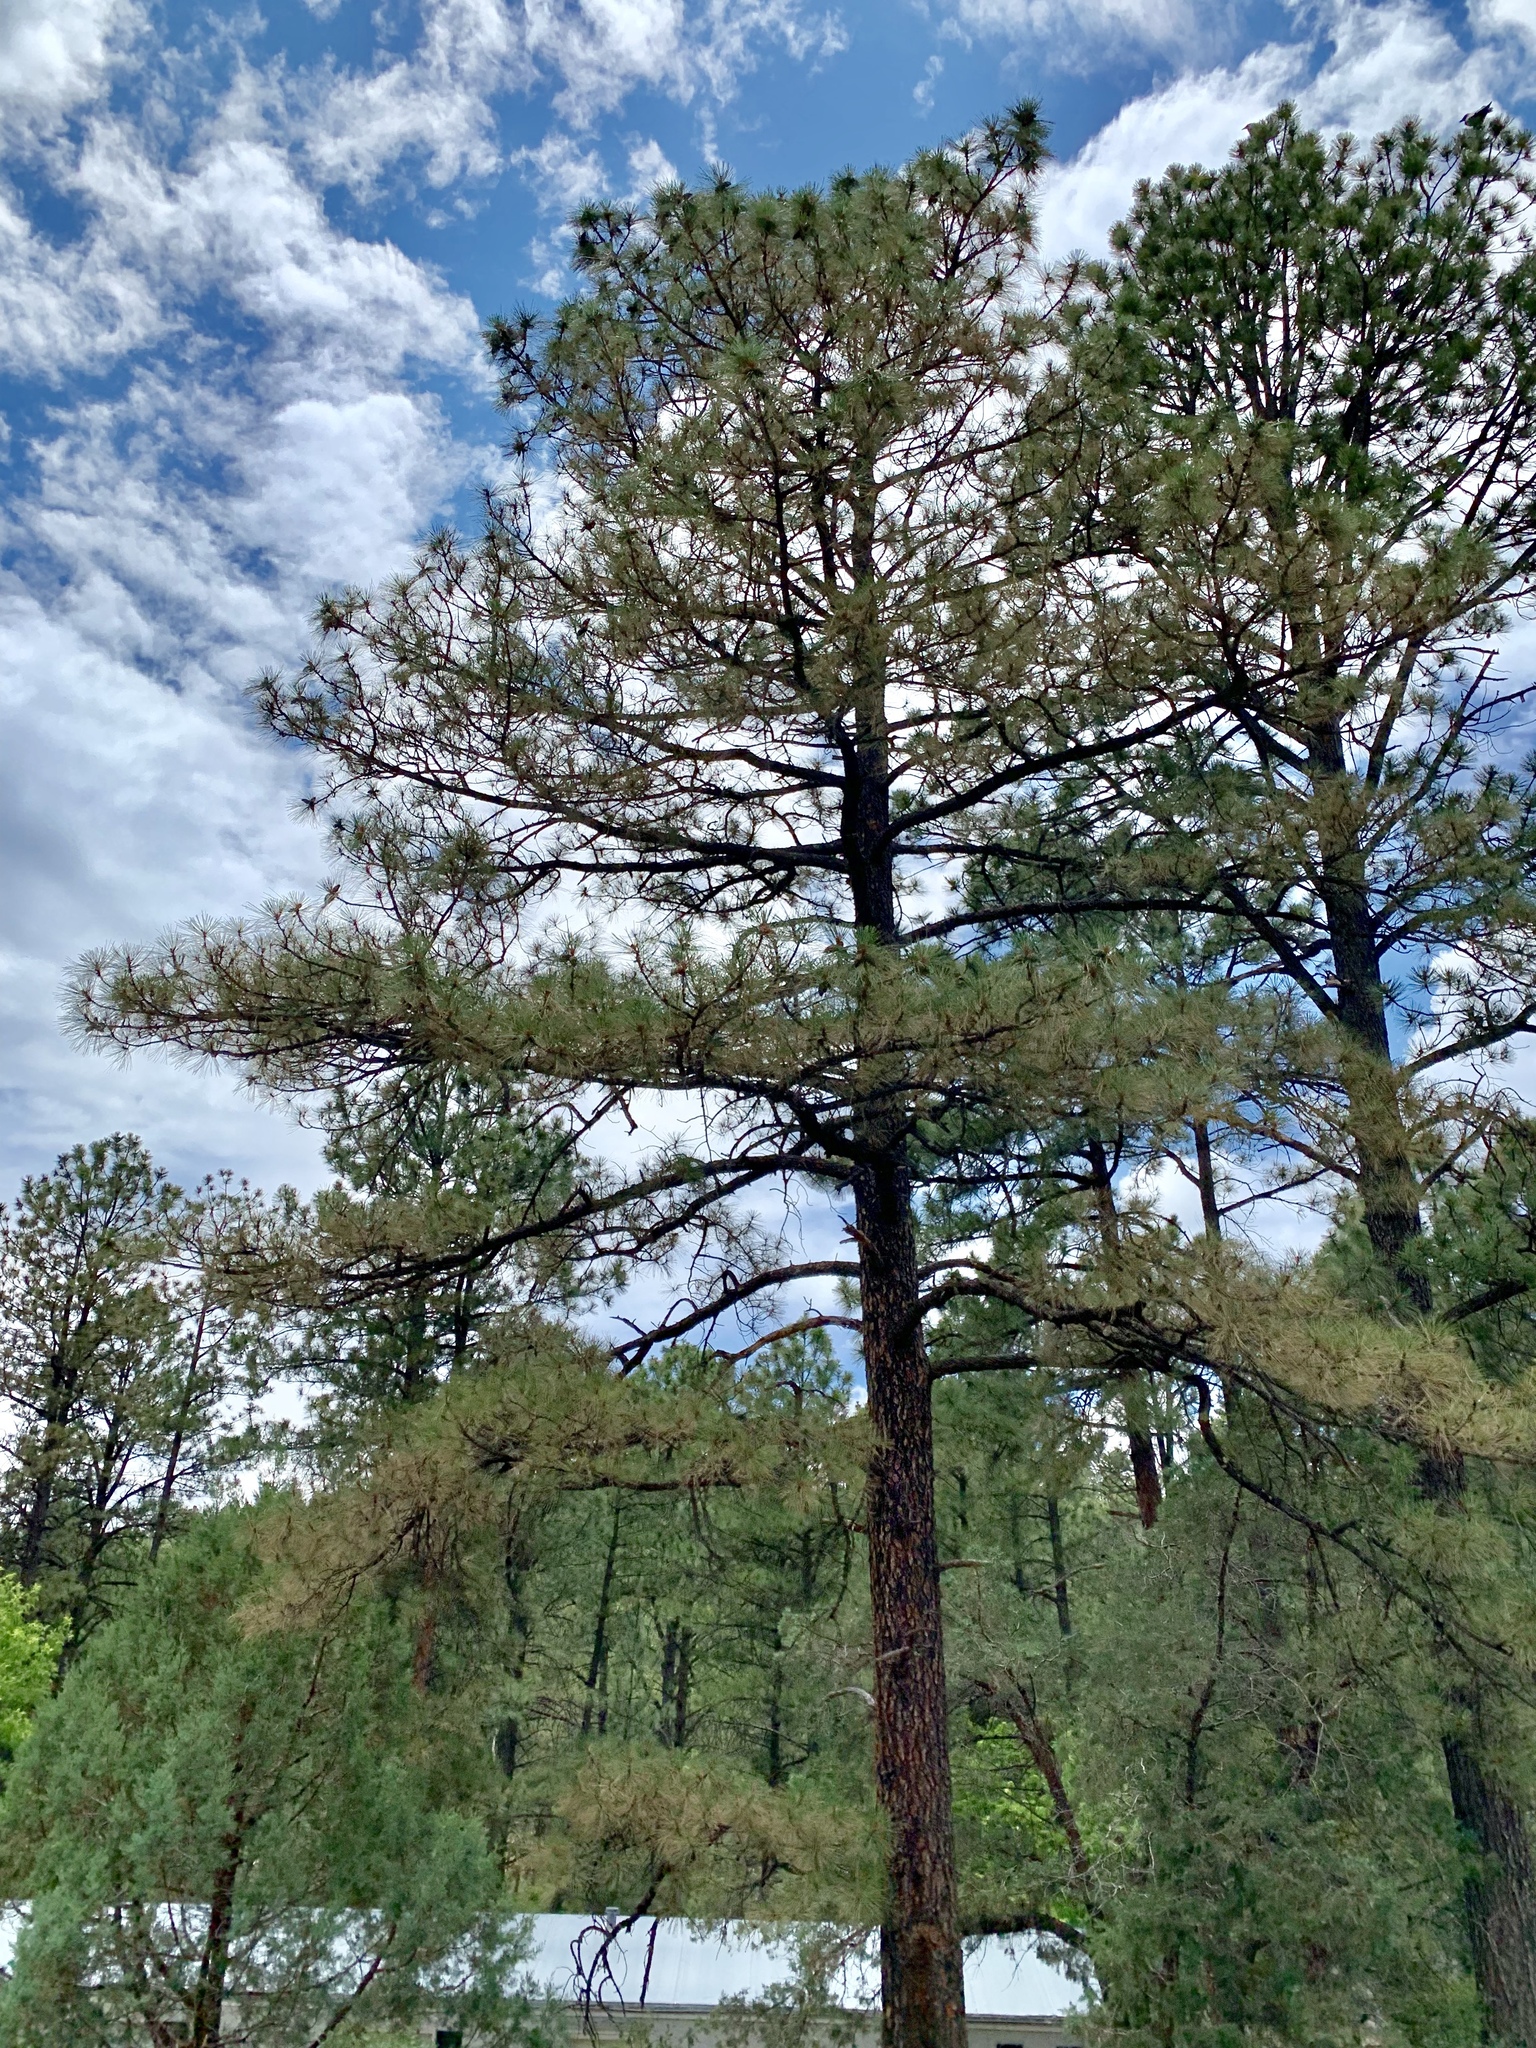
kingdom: Plantae
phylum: Tracheophyta
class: Pinopsida
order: Pinales
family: Pinaceae
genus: Pinus
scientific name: Pinus ponderosa
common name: Western yellow-pine
